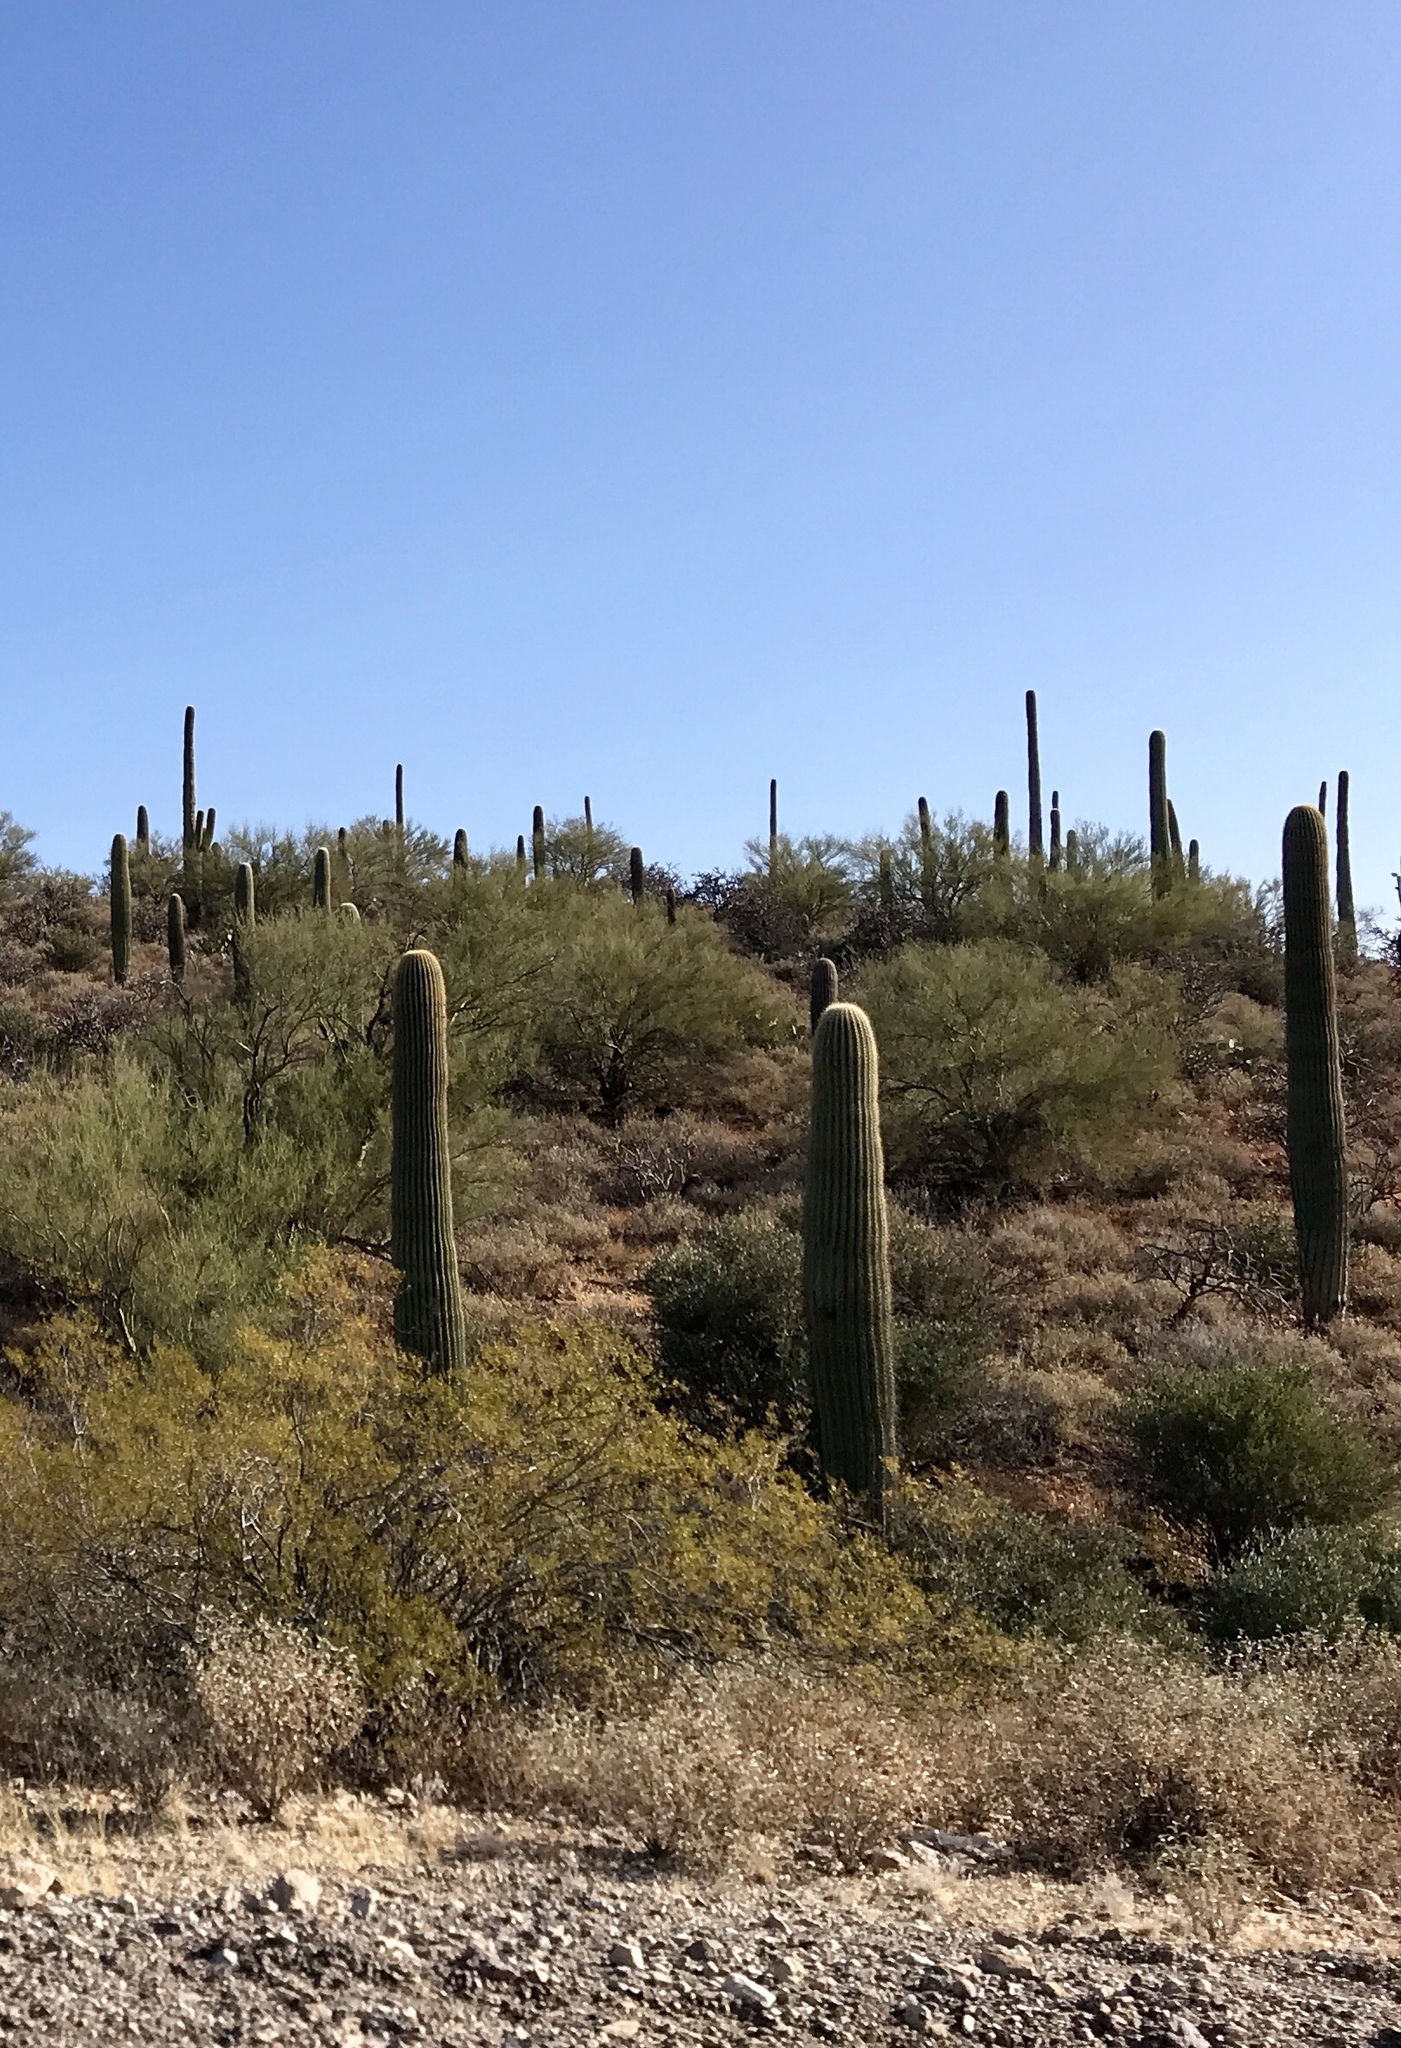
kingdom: Plantae
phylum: Tracheophyta
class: Magnoliopsida
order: Caryophyllales
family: Cactaceae
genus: Carnegiea
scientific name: Carnegiea gigantea
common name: Saguaro
